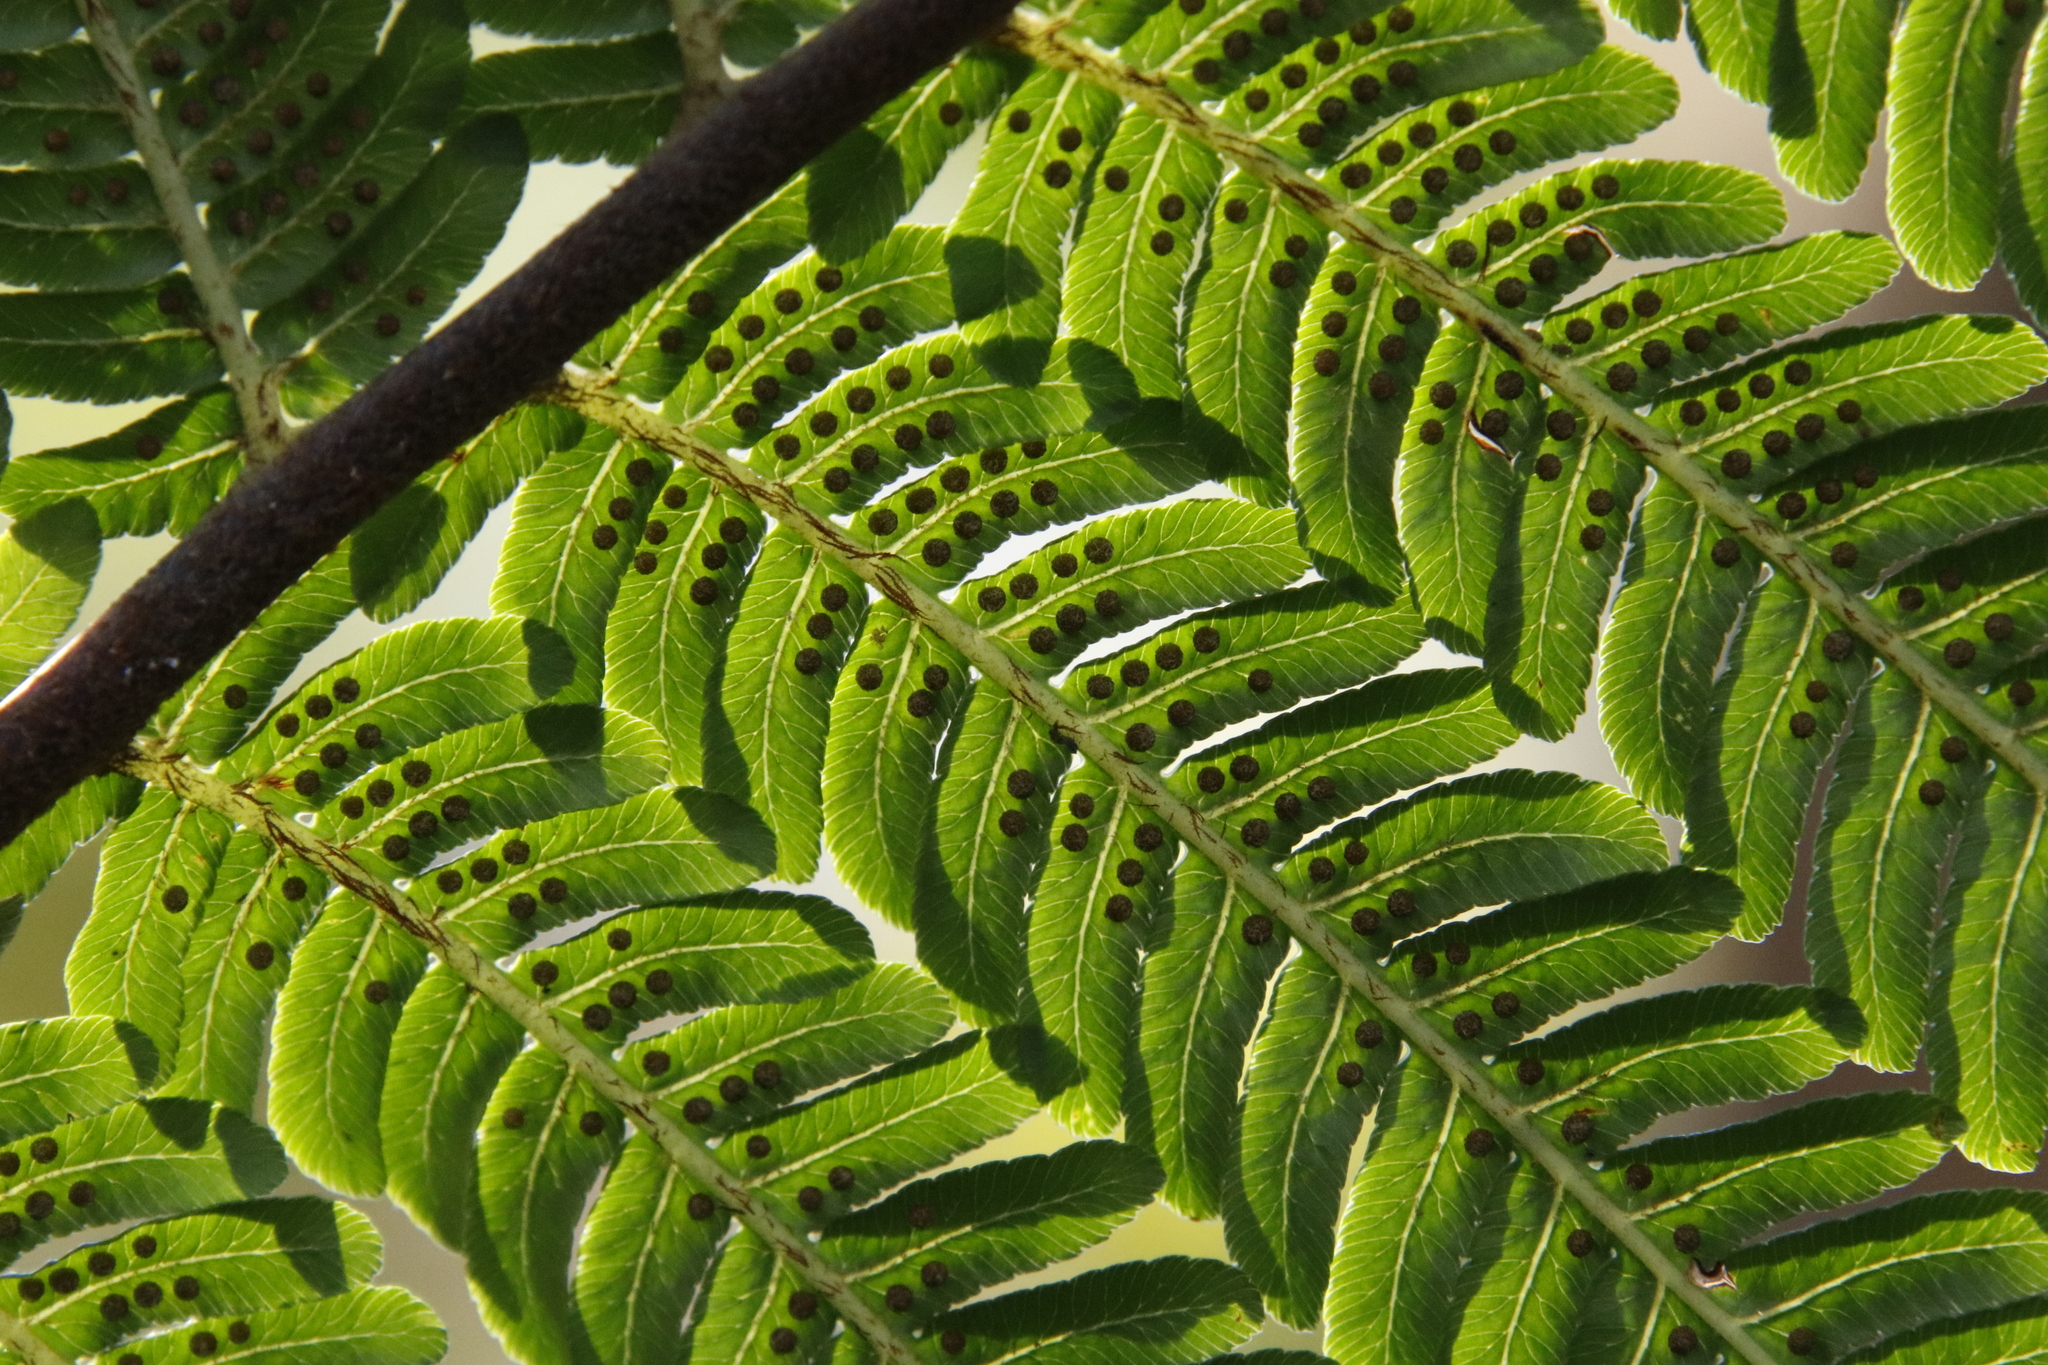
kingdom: Plantae
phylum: Tracheophyta
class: Polypodiopsida
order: Cyatheales
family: Cyatheaceae
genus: Sphaeropteris
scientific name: Sphaeropteris cooperi
